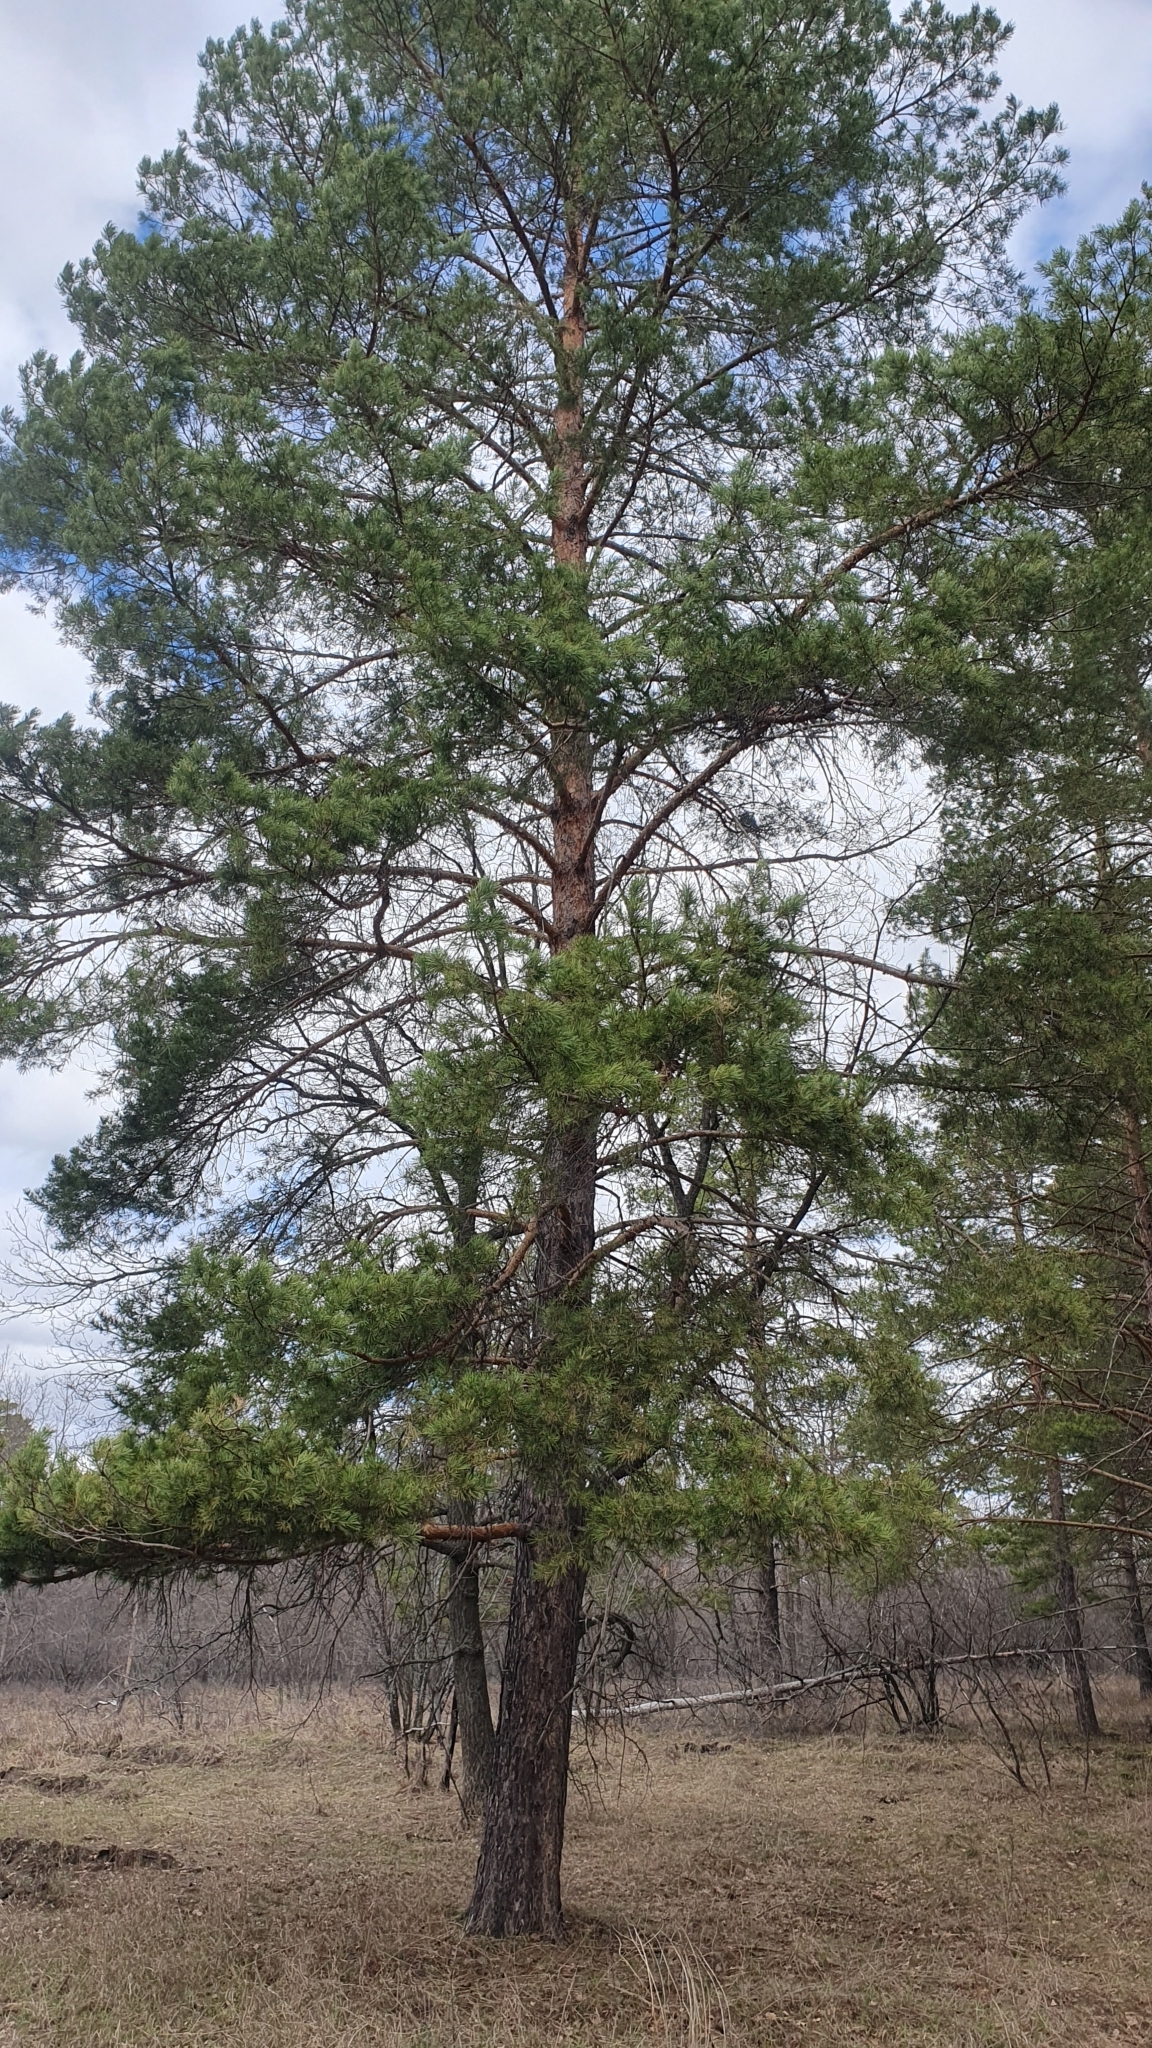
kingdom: Plantae
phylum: Tracheophyta
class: Pinopsida
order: Pinales
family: Pinaceae
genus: Pinus
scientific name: Pinus sylvestris
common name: Scots pine
